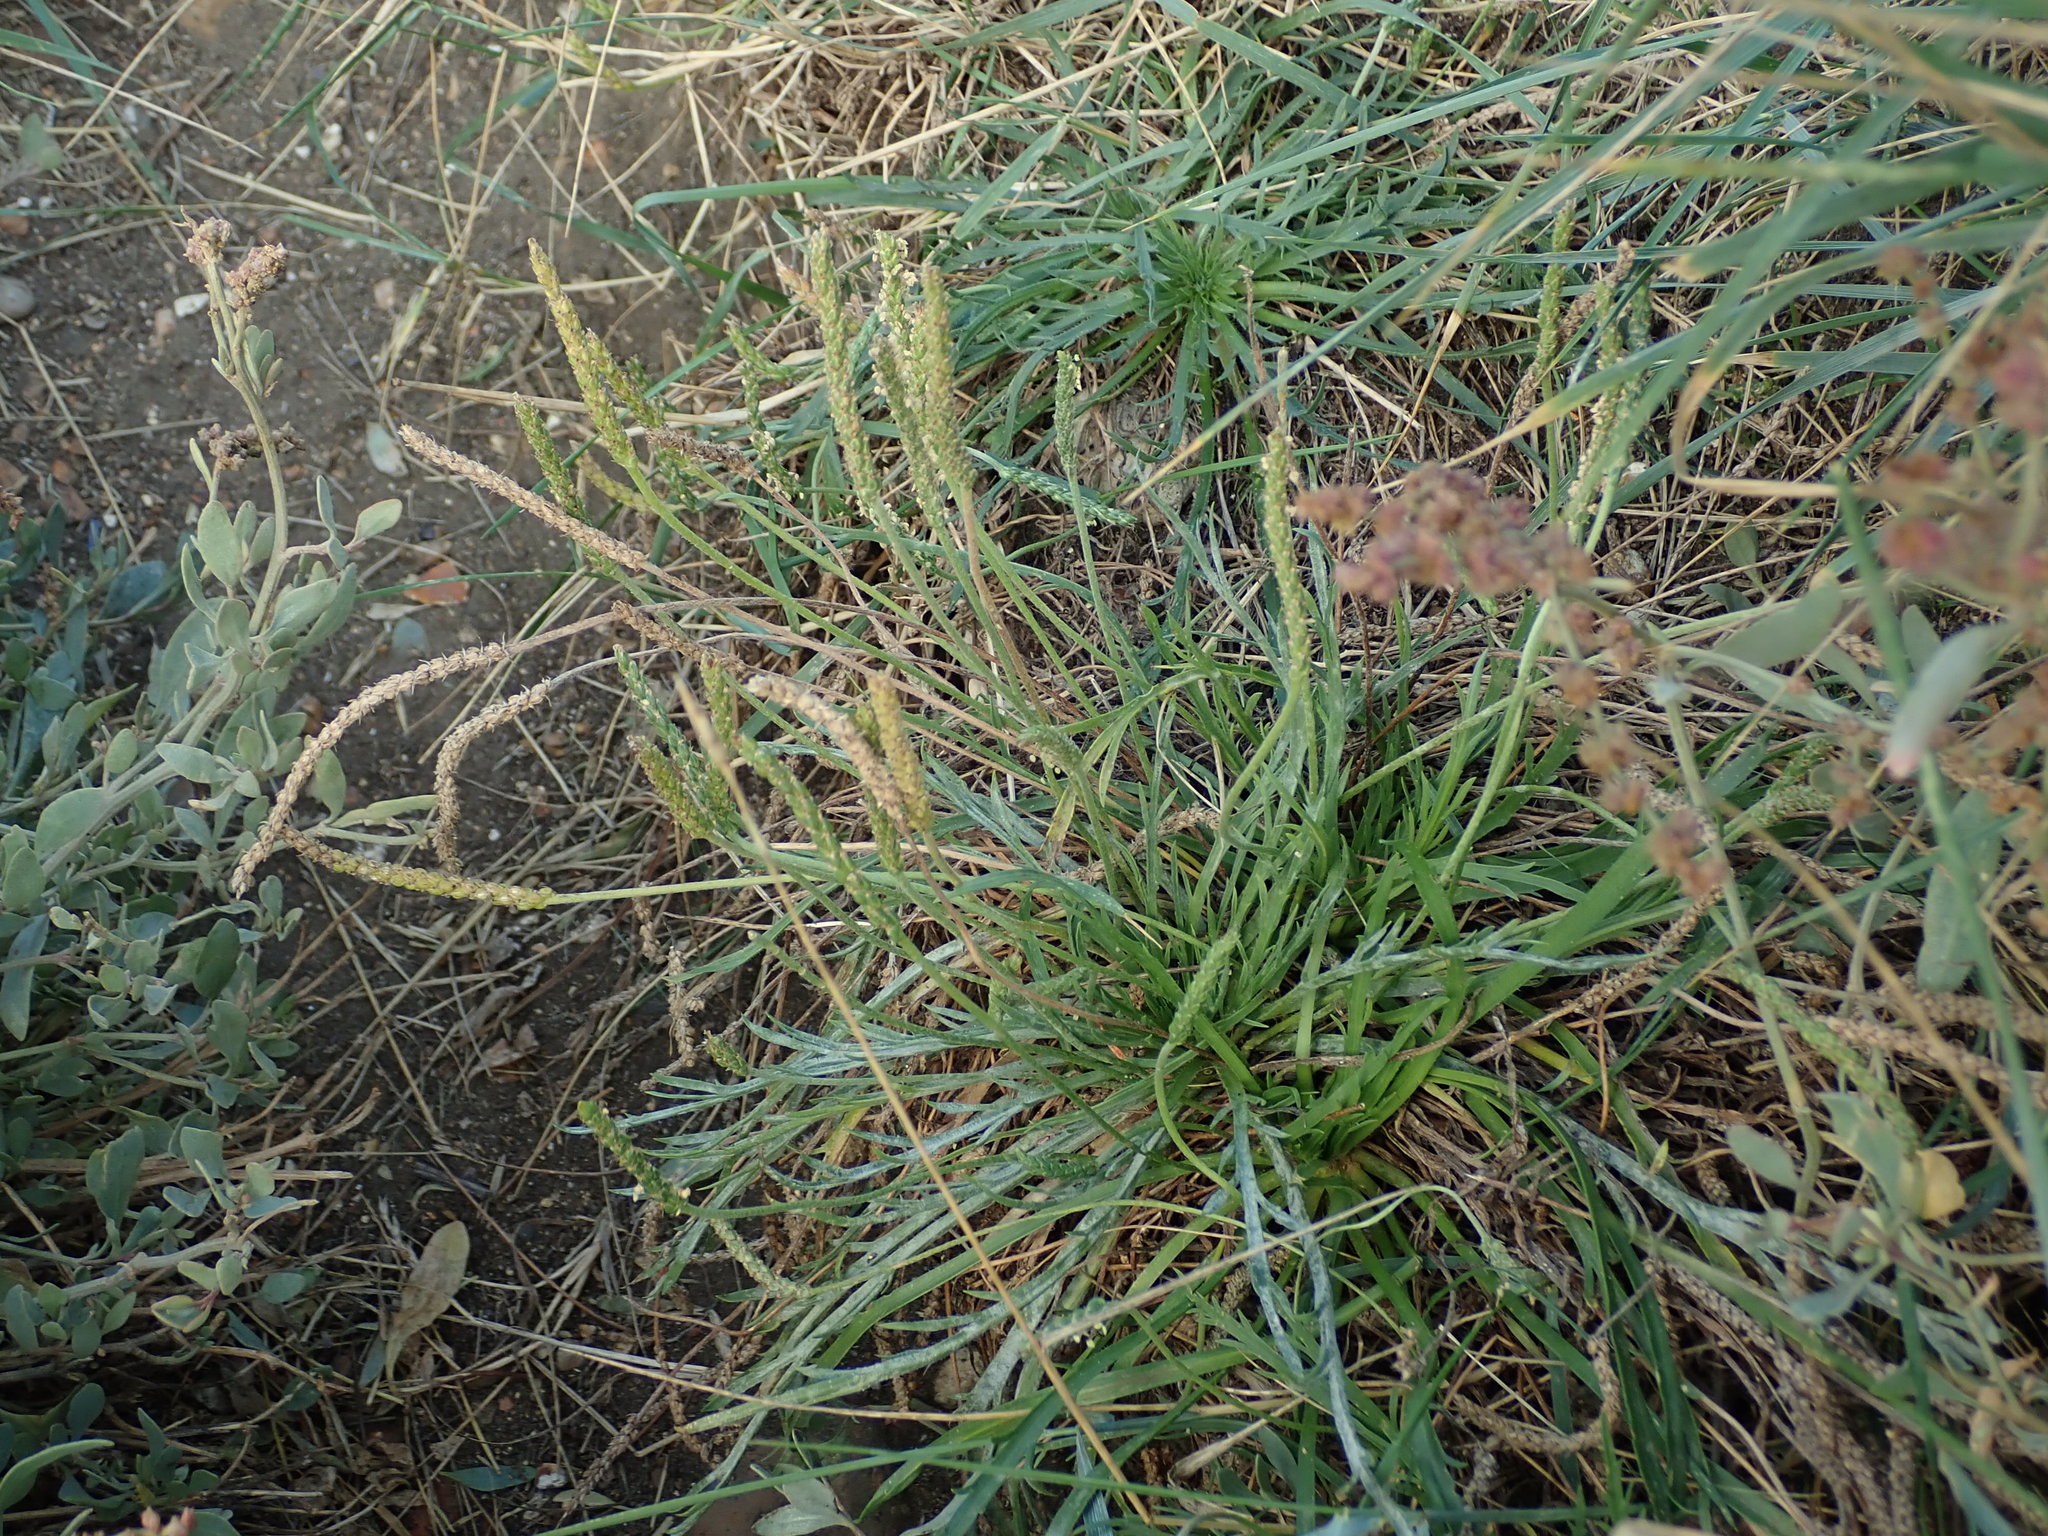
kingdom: Plantae
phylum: Tracheophyta
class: Magnoliopsida
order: Lamiales
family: Plantaginaceae
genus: Plantago
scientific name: Plantago maritima
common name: Sea plantain
